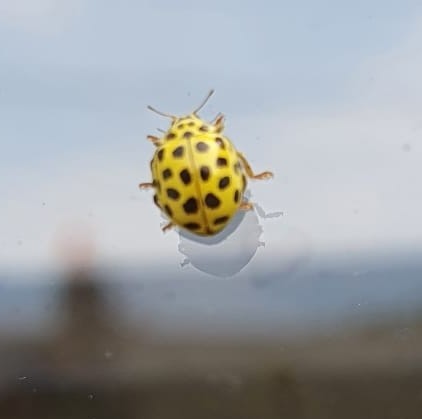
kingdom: Animalia
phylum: Arthropoda
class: Insecta
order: Coleoptera
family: Coccinellidae
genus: Psyllobora
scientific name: Psyllobora vigintiduopunctata
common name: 22-spot ladybird
